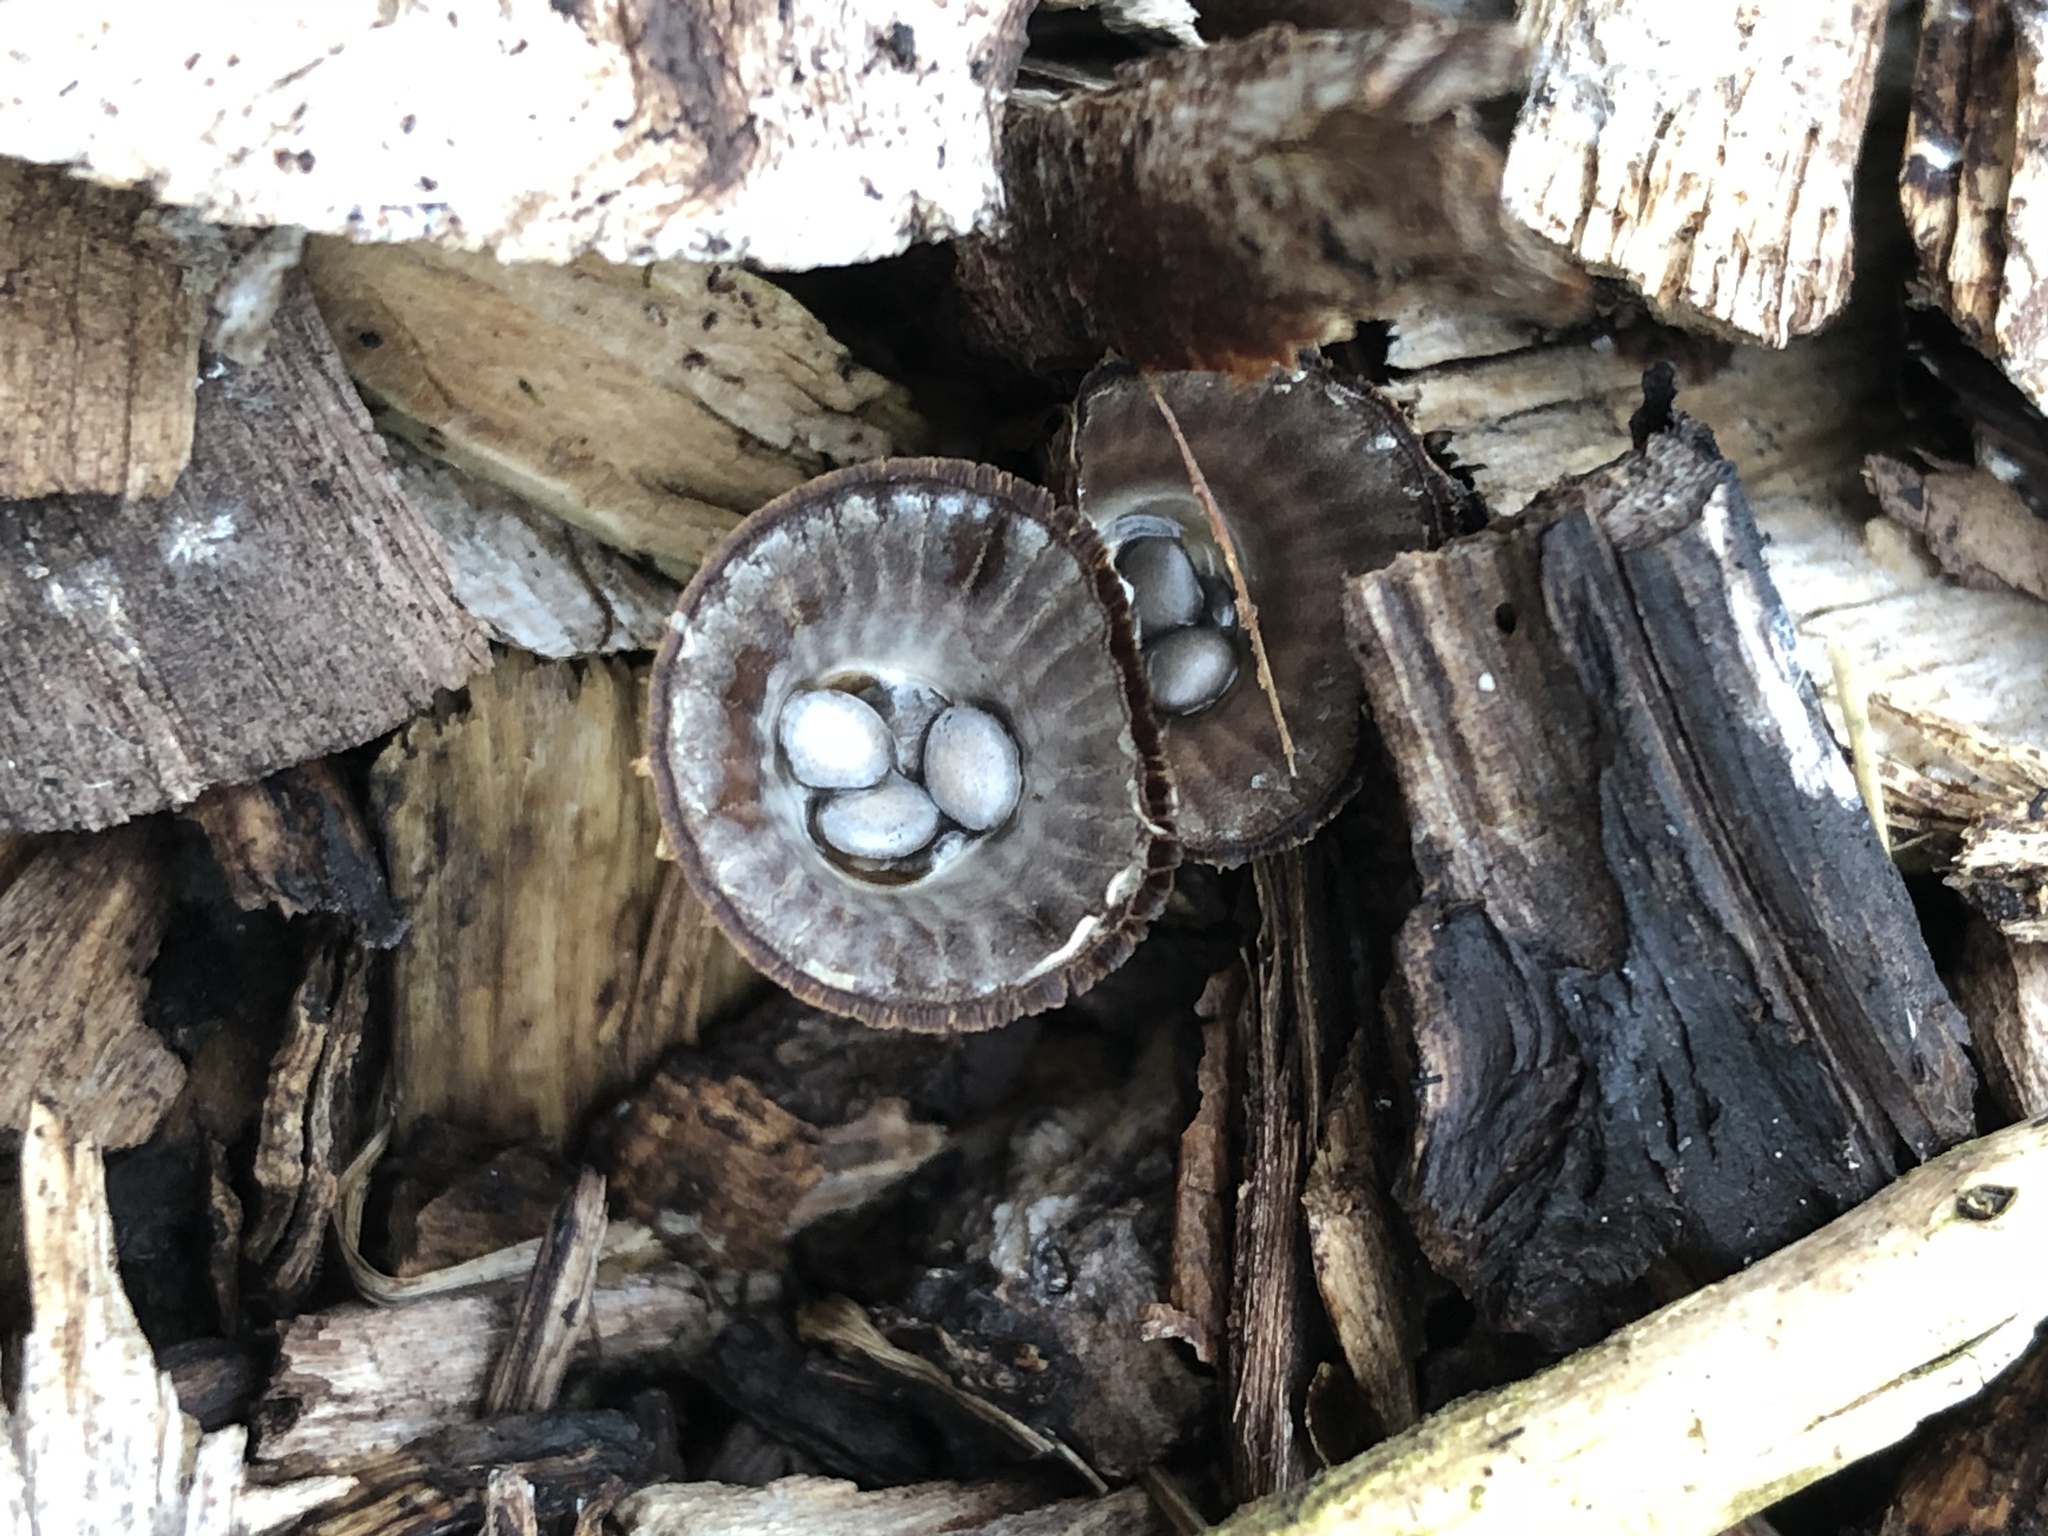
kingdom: Fungi
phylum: Basidiomycota
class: Agaricomycetes
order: Agaricales
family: Agaricaceae
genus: Cyathus
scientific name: Cyathus striatus
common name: Fluted bird's nest
